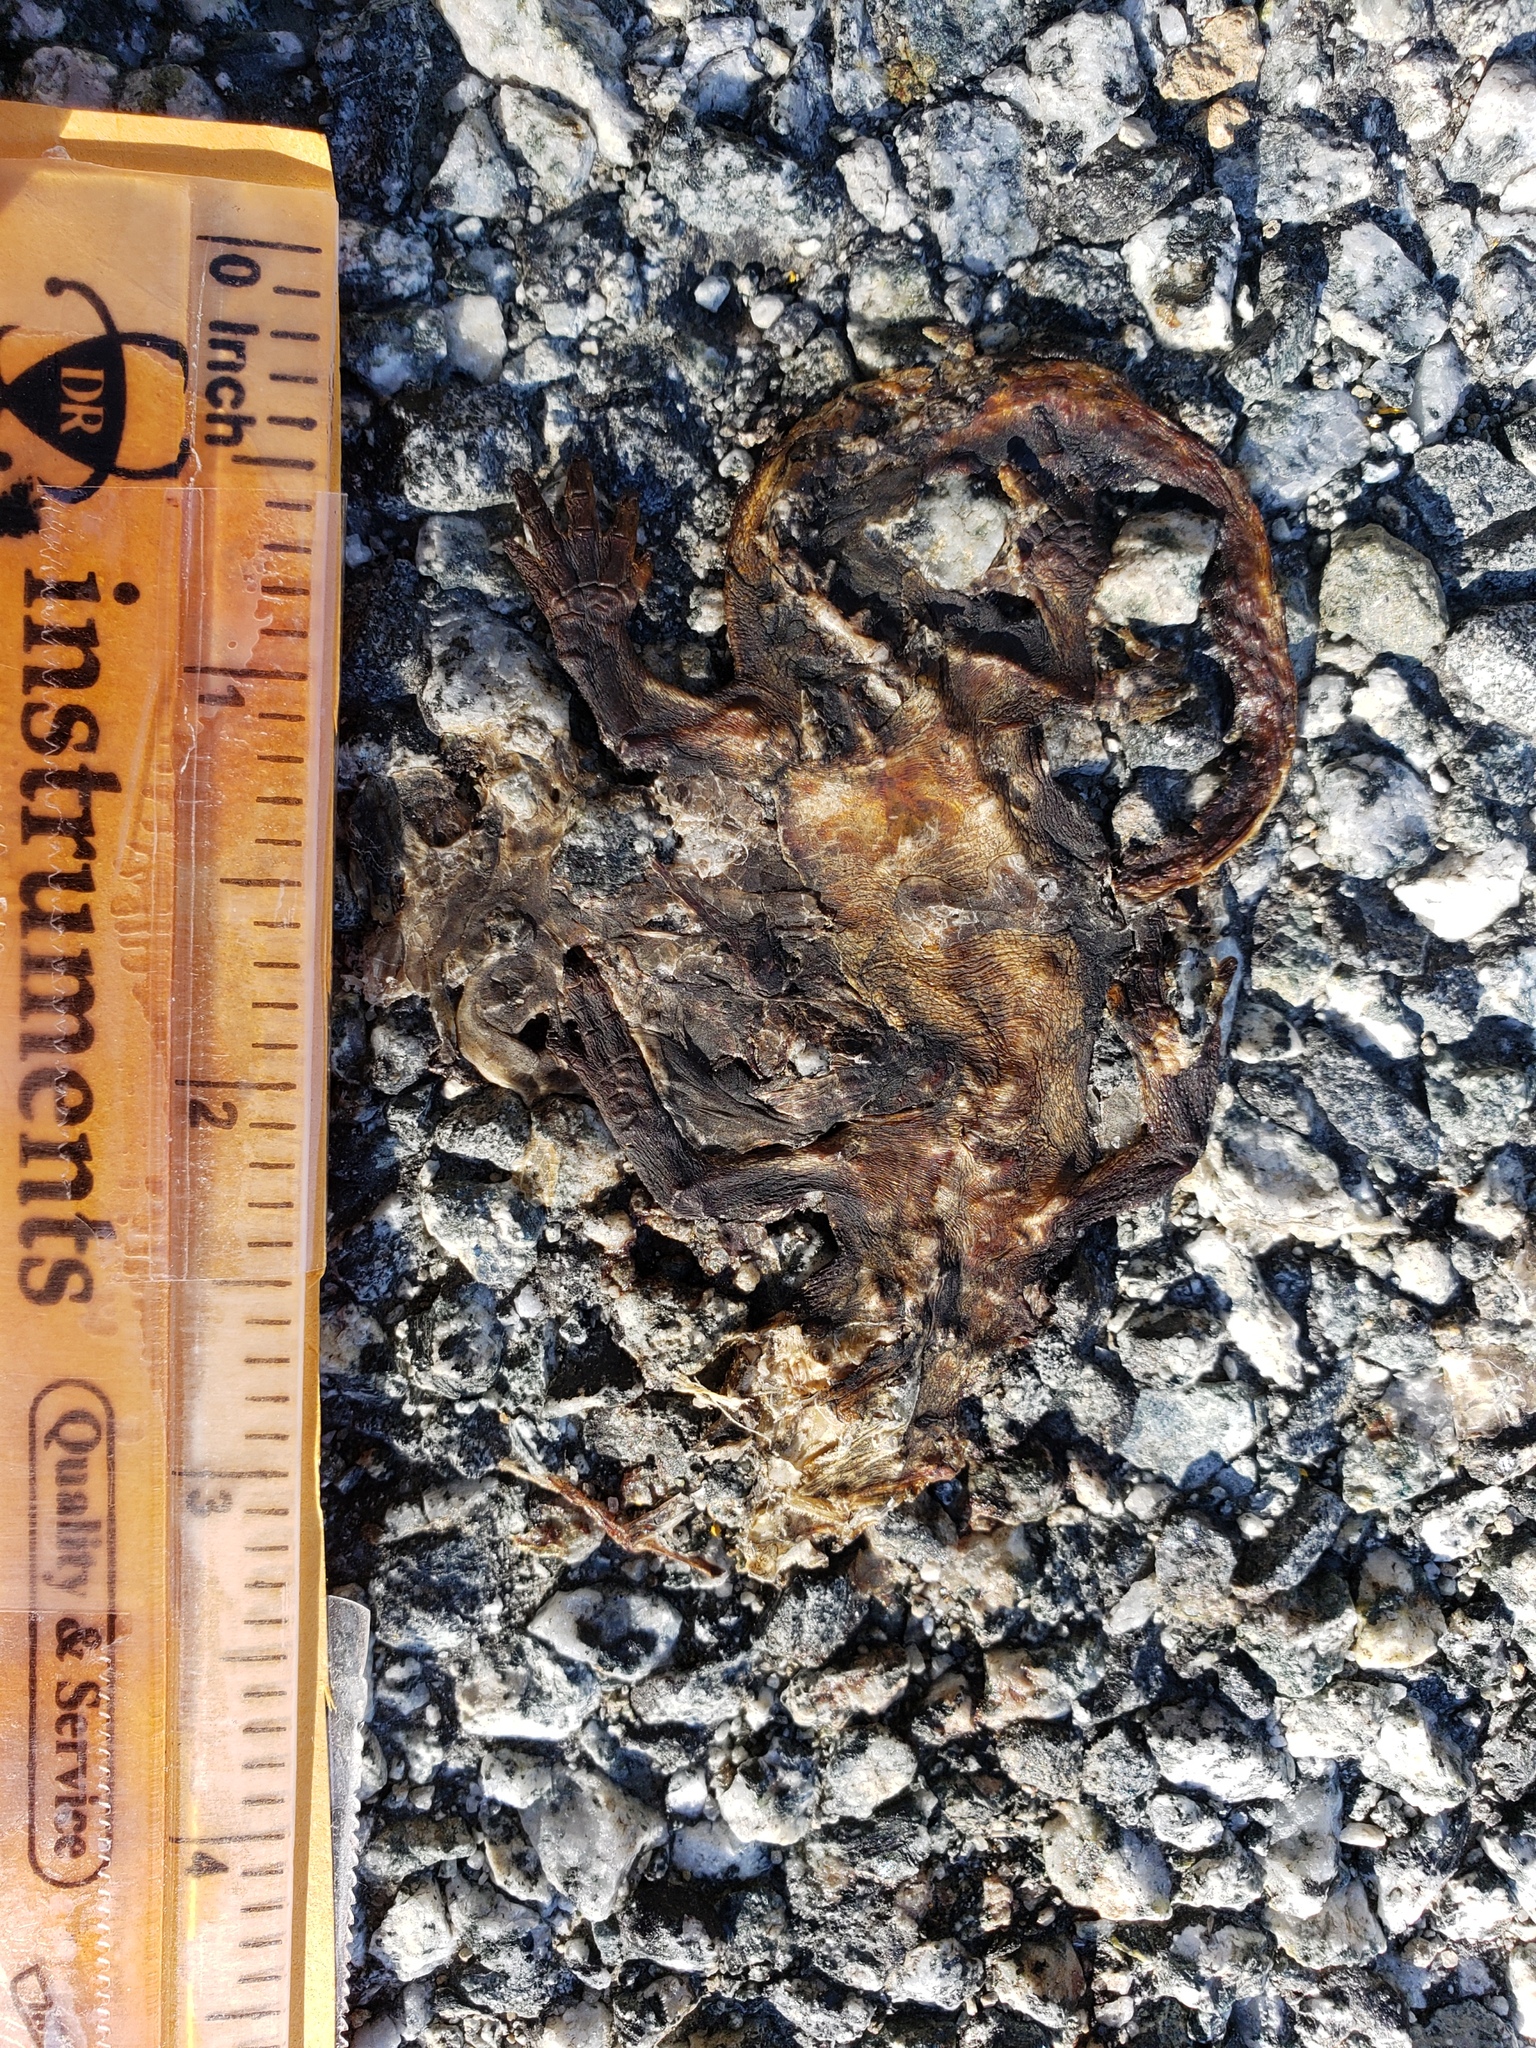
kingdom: Animalia
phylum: Chordata
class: Amphibia
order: Caudata
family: Salamandridae
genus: Taricha
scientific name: Taricha
